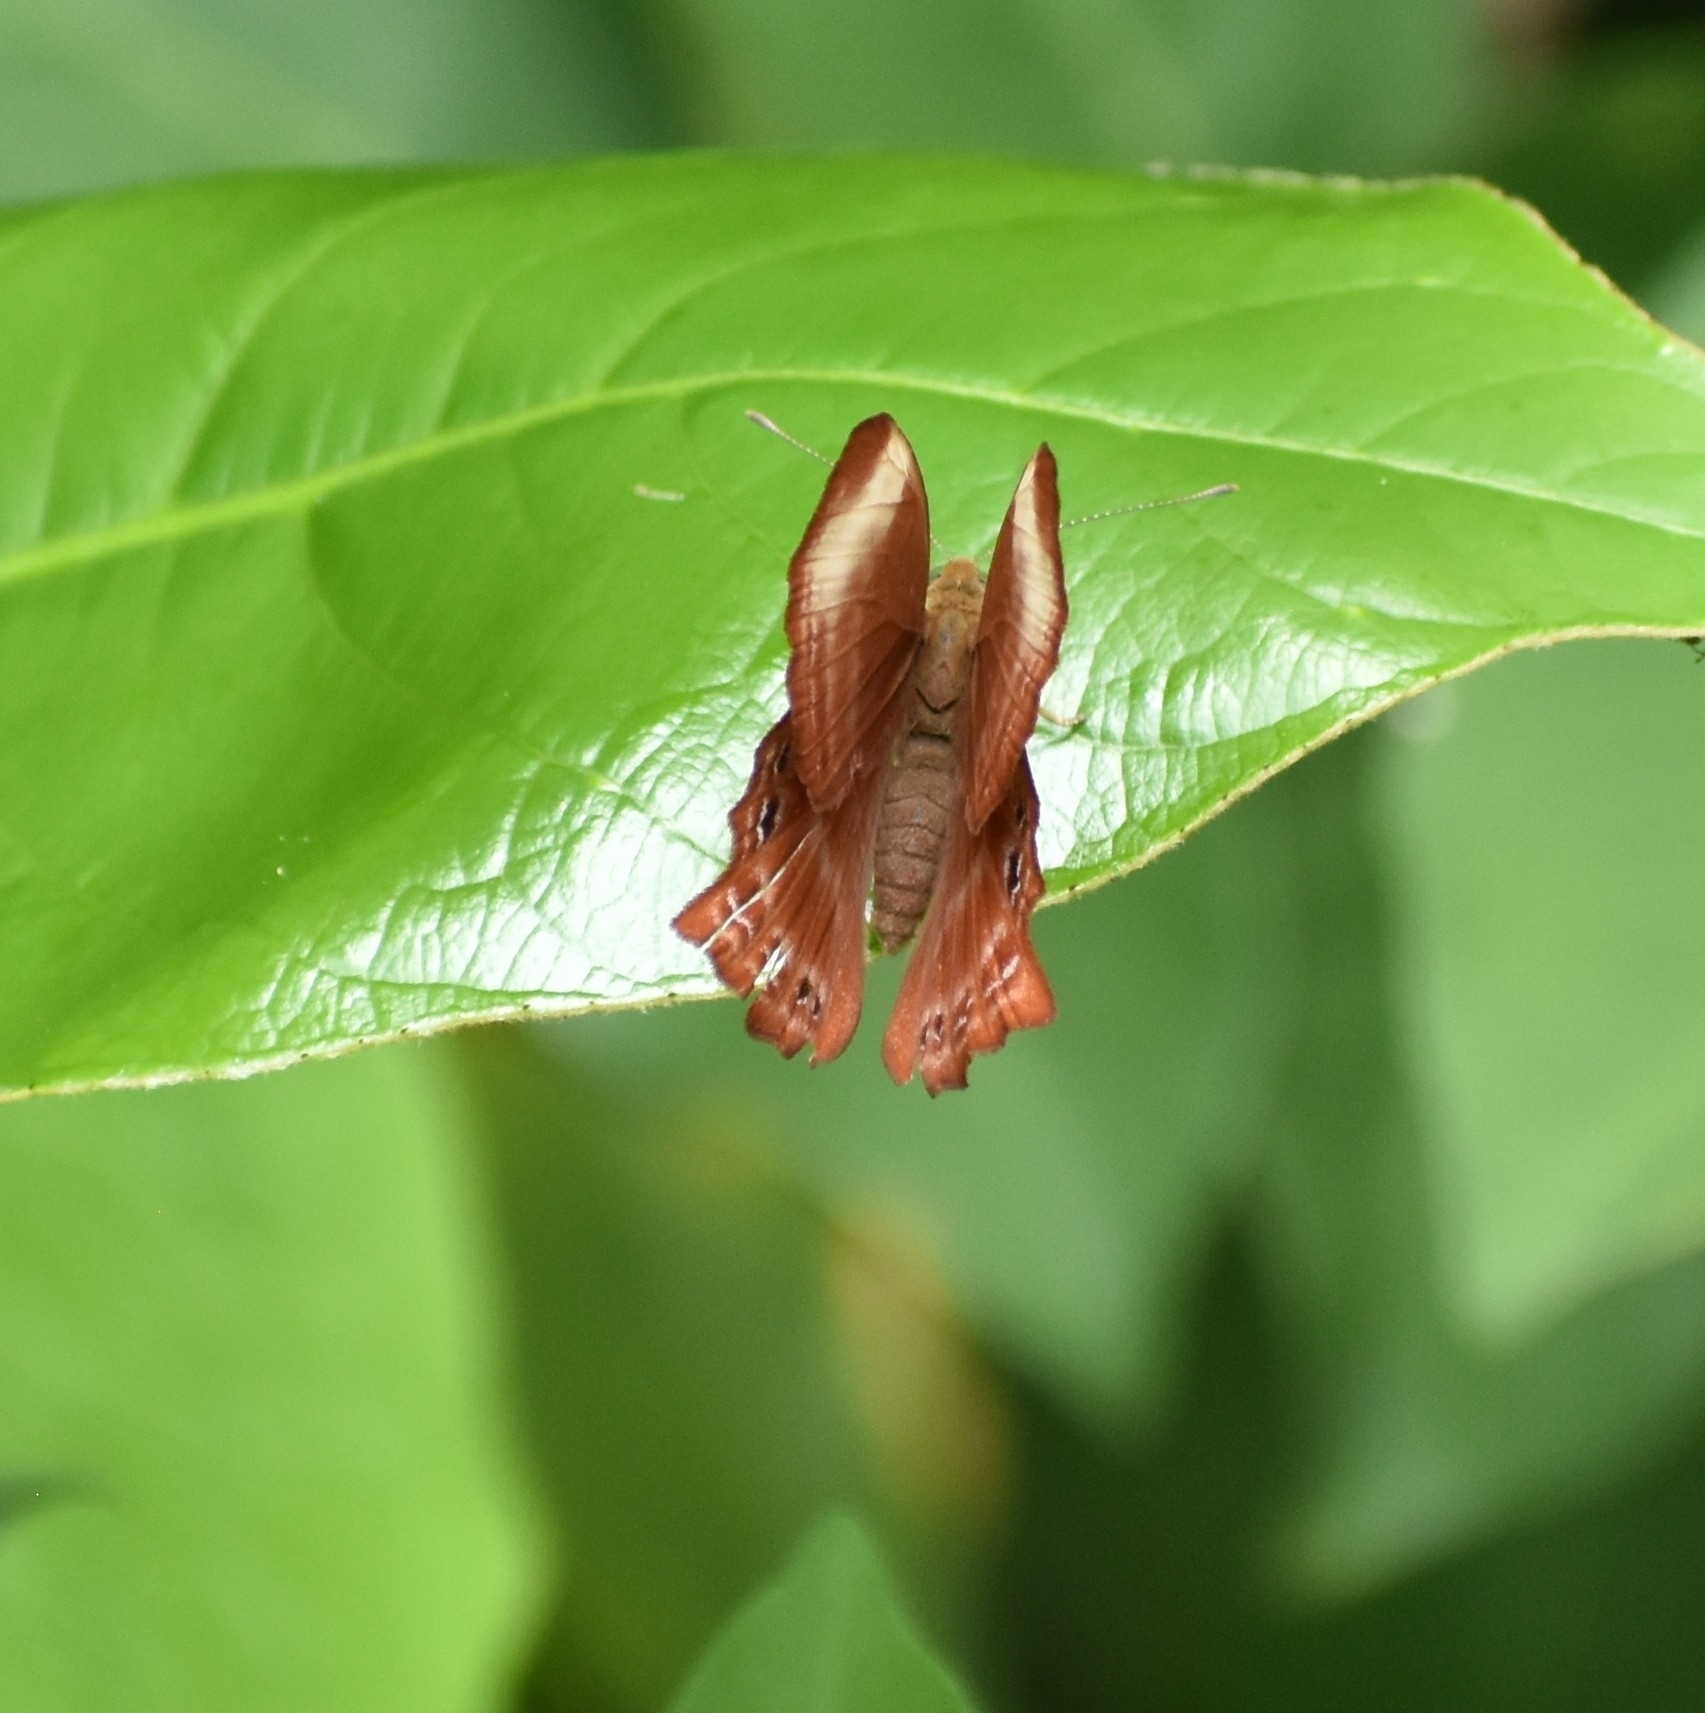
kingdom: Animalia
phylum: Arthropoda
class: Insecta
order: Lepidoptera
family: Lycaenidae
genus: Abisara
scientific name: Abisara saturata
